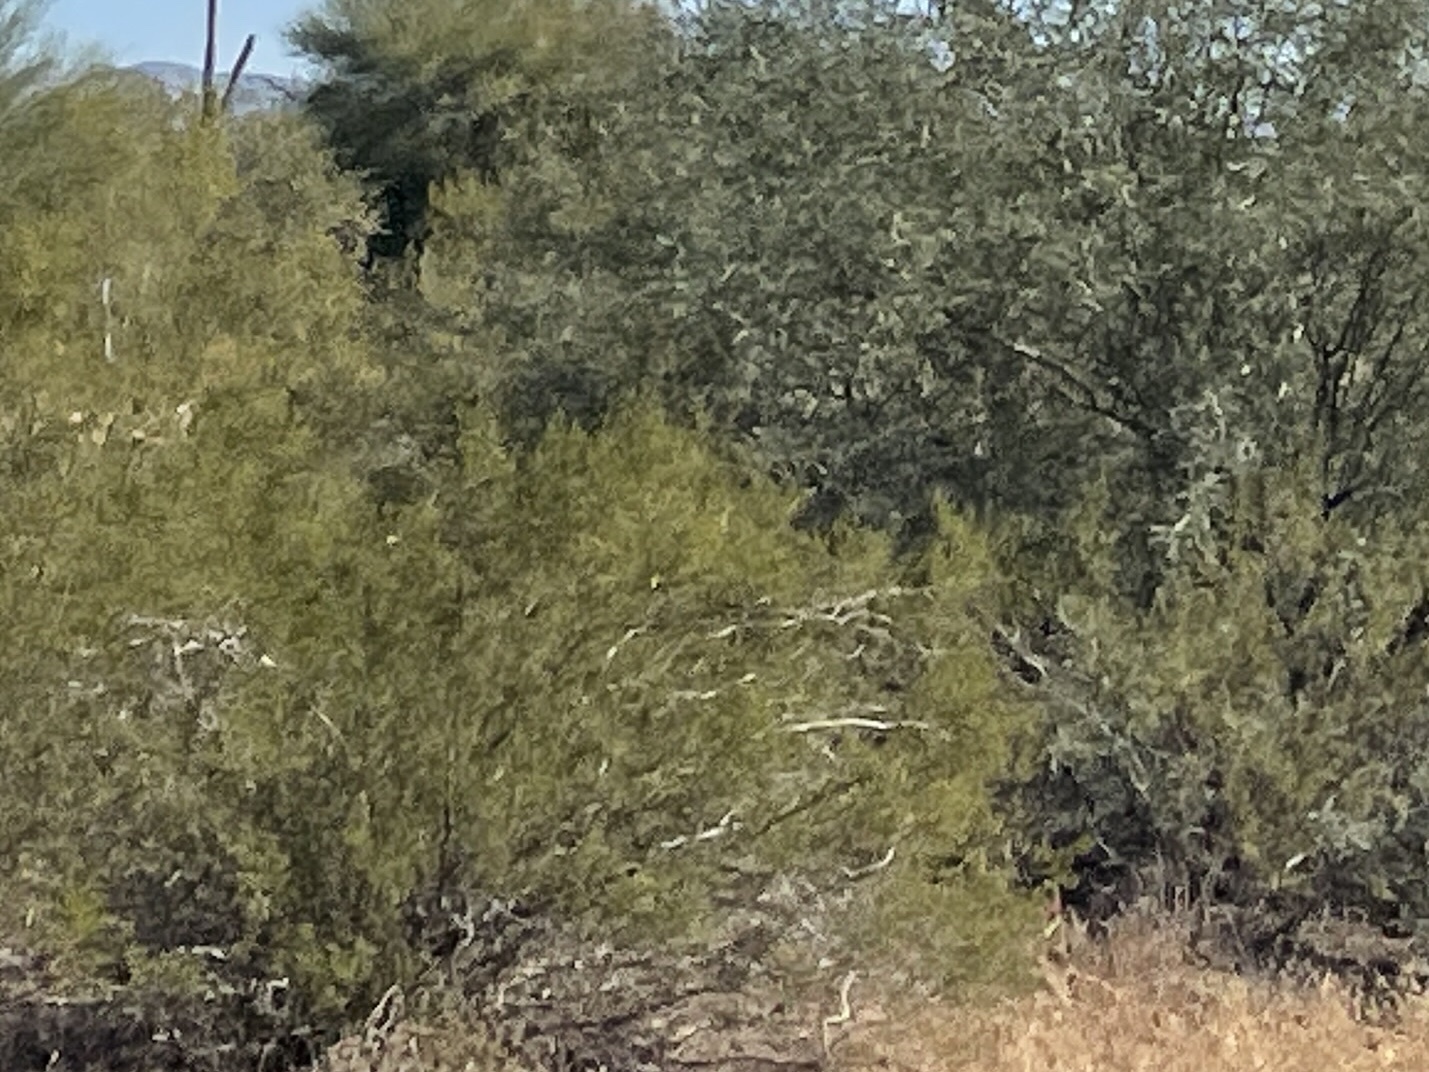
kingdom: Plantae
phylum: Tracheophyta
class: Magnoliopsida
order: Zygophyllales
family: Zygophyllaceae
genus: Larrea
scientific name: Larrea tridentata
